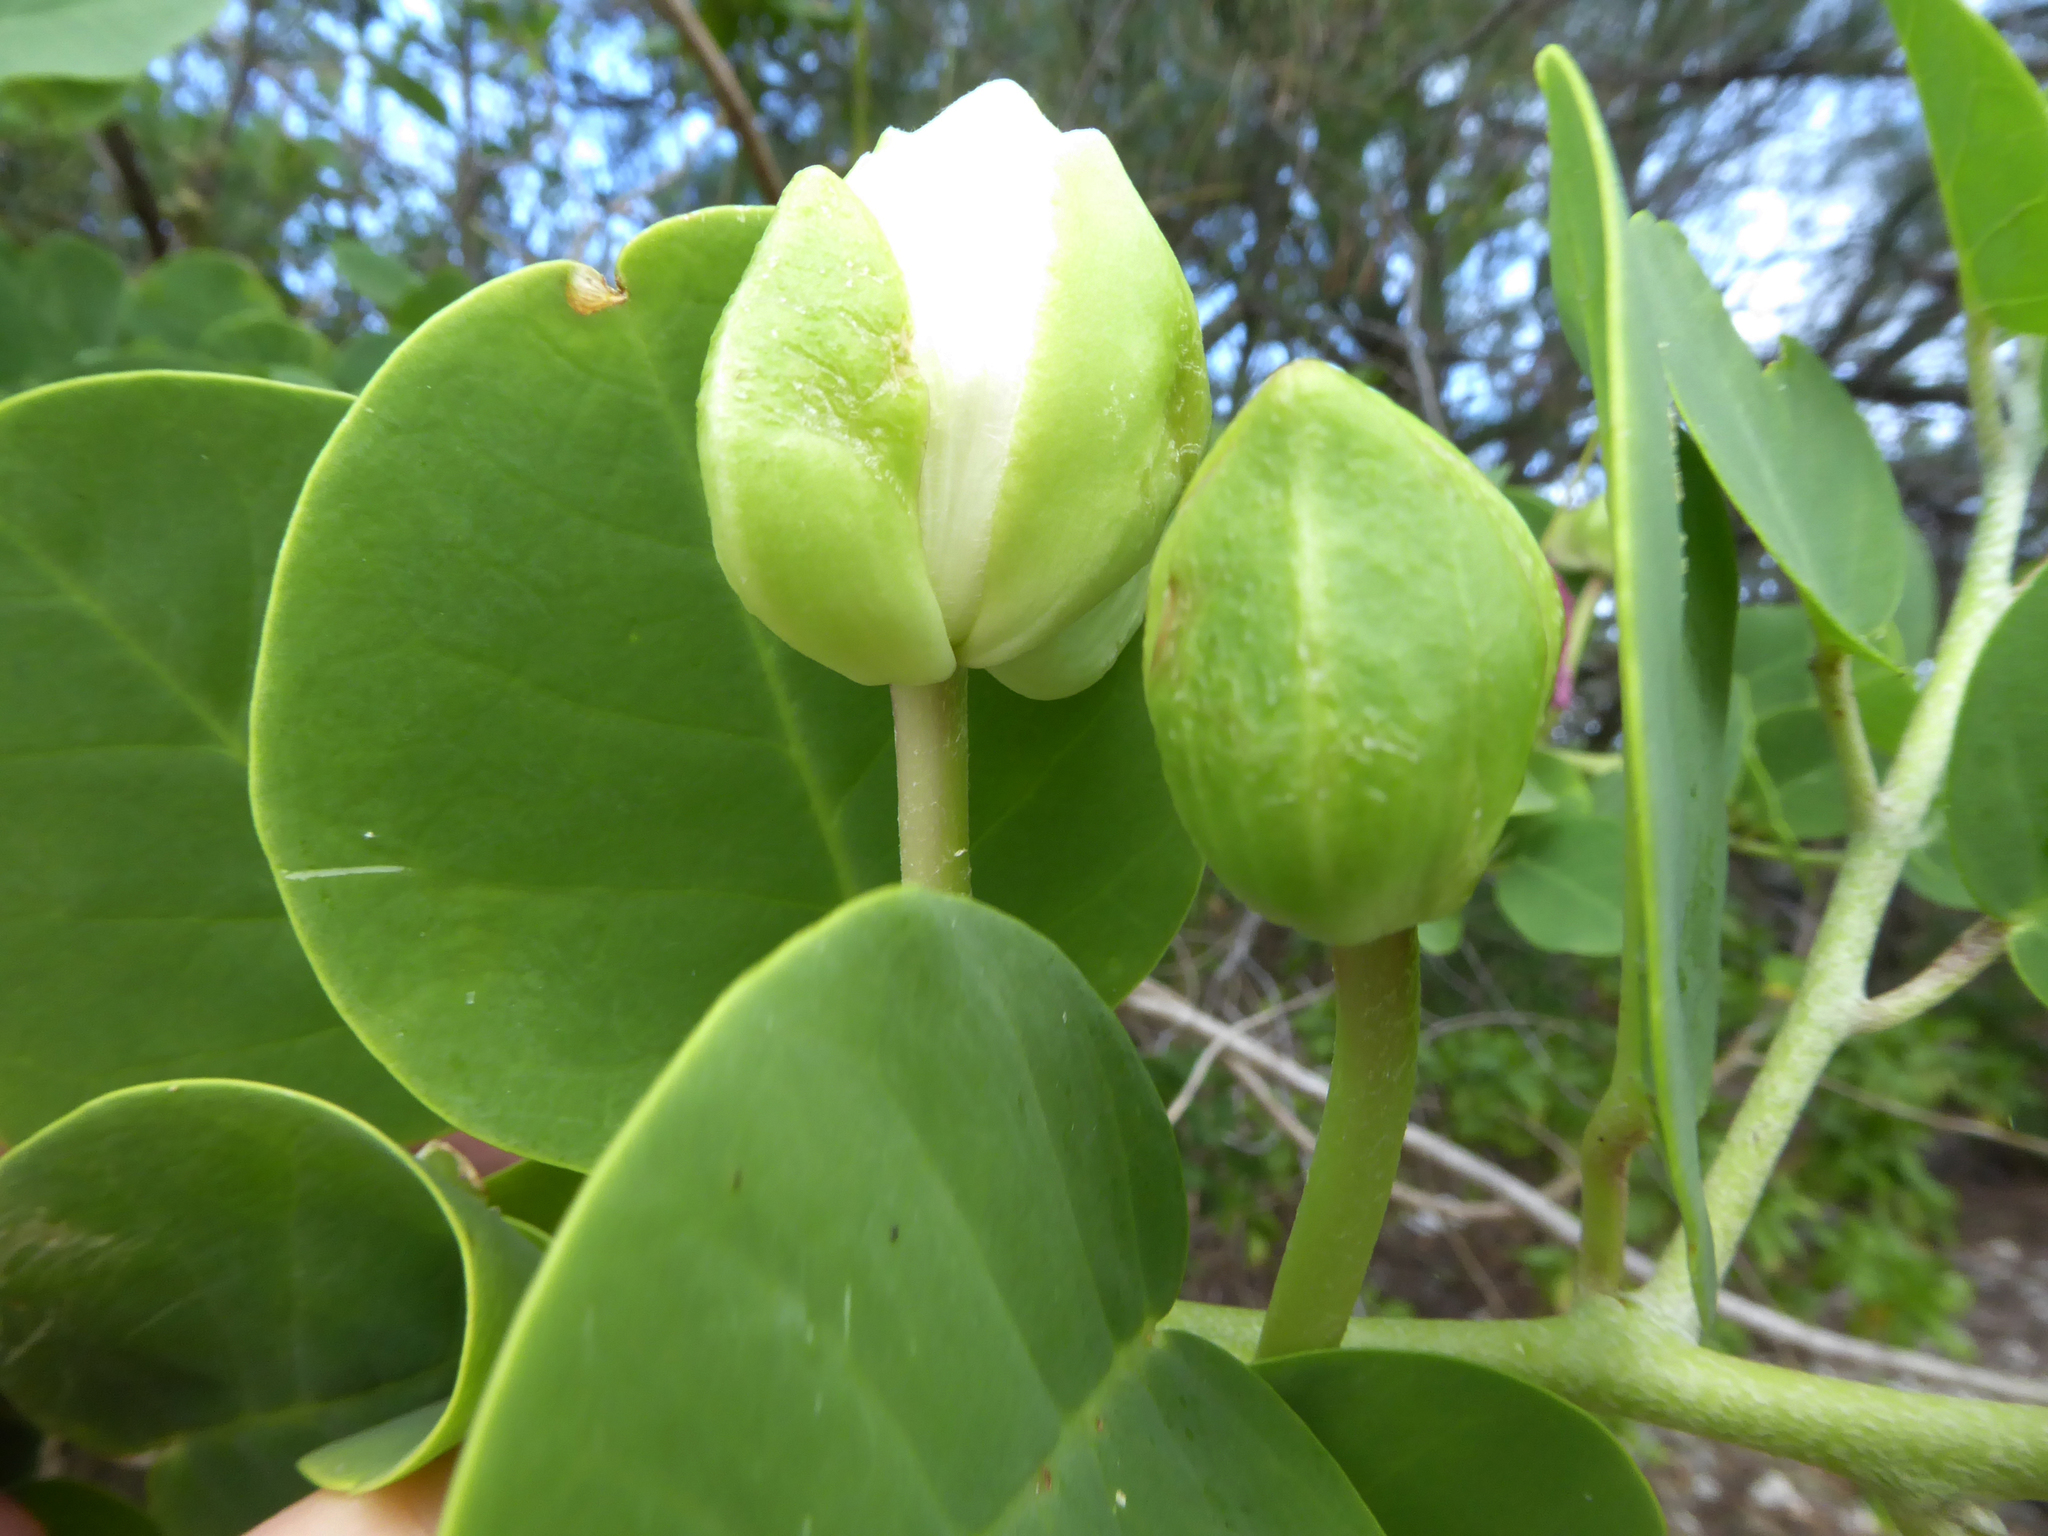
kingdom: Plantae
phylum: Tracheophyta
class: Magnoliopsida
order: Brassicales
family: Capparaceae
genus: Capparis
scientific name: Capparis spinosa
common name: Caper
